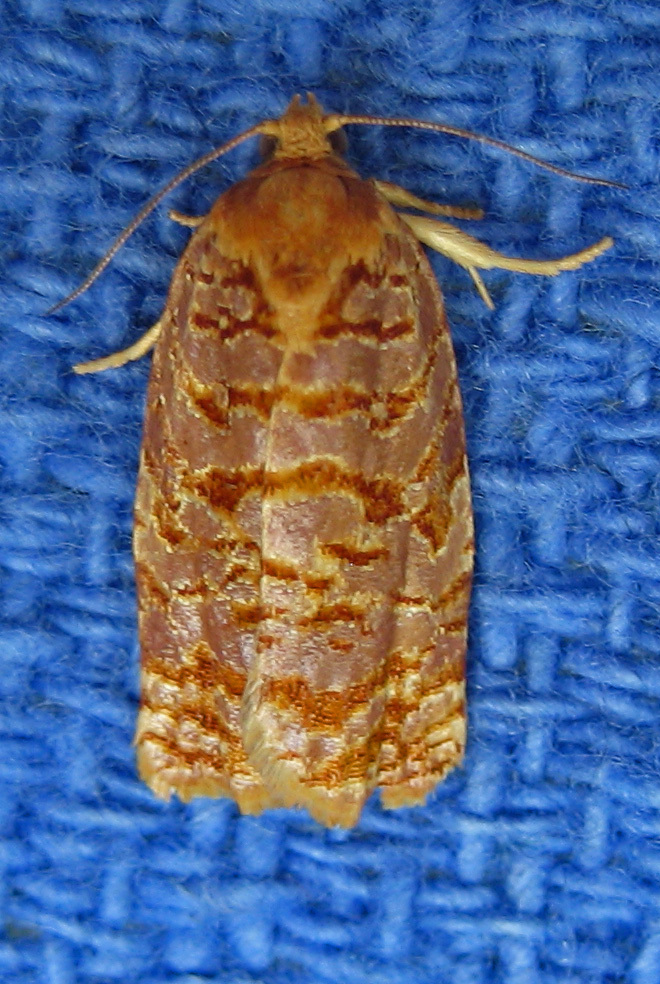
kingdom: Animalia
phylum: Arthropoda
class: Insecta
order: Lepidoptera
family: Tortricidae
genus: Archips
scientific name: Archips georgiana
